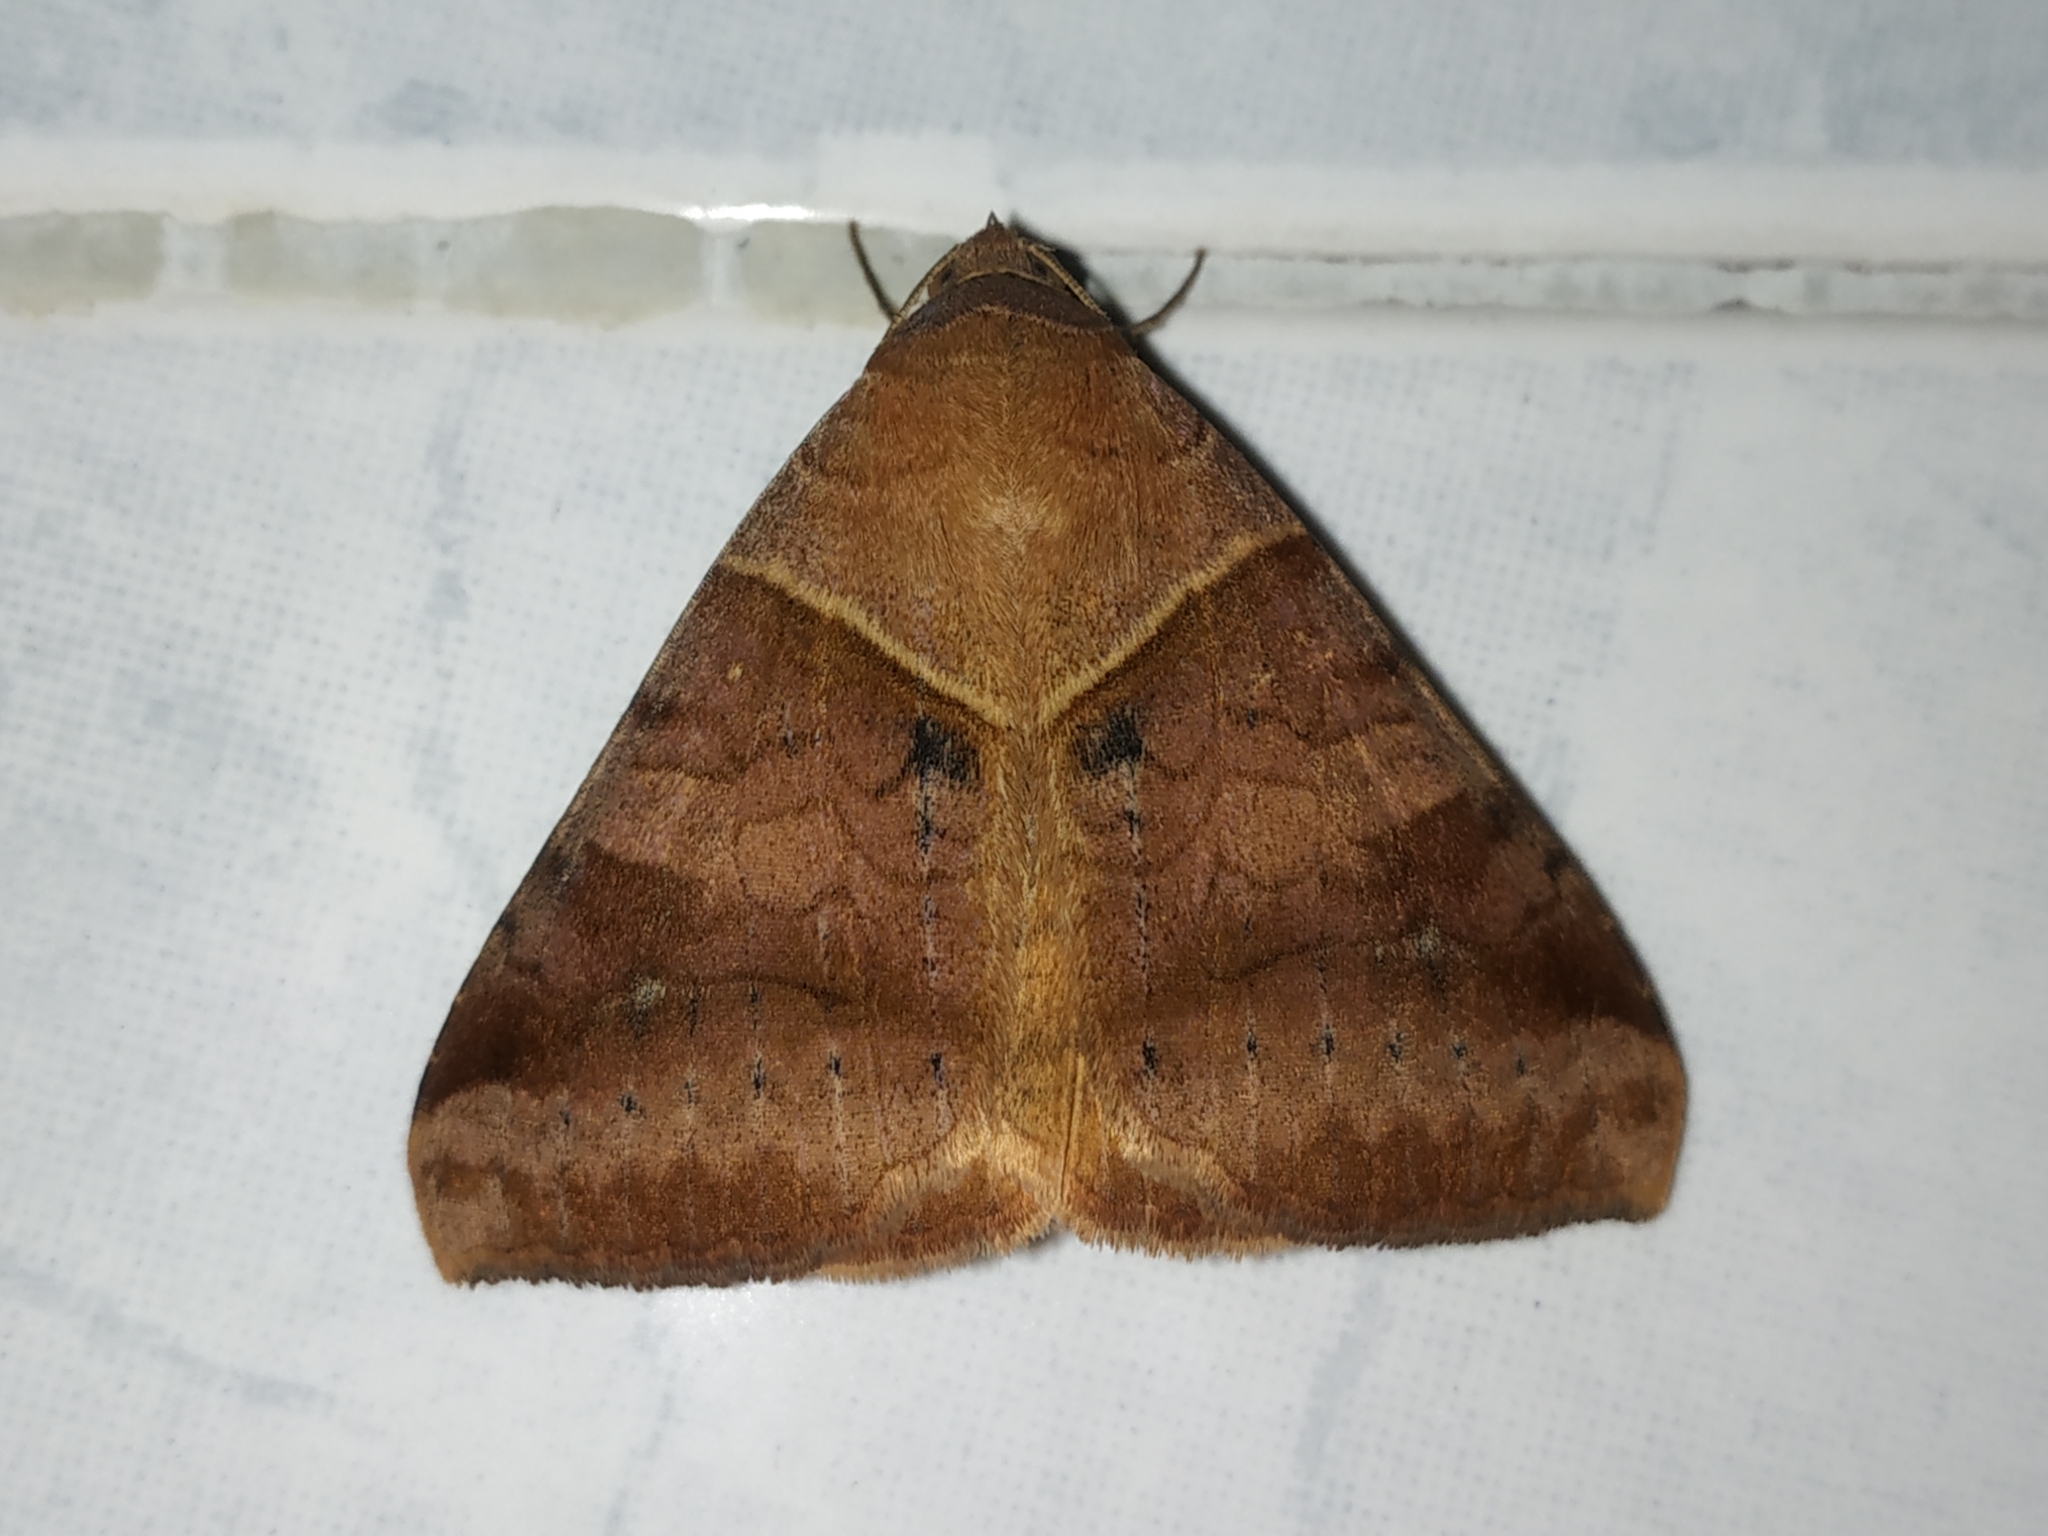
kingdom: Animalia
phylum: Arthropoda
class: Insecta
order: Lepidoptera
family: Erebidae
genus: Mocis
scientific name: Mocis undata
